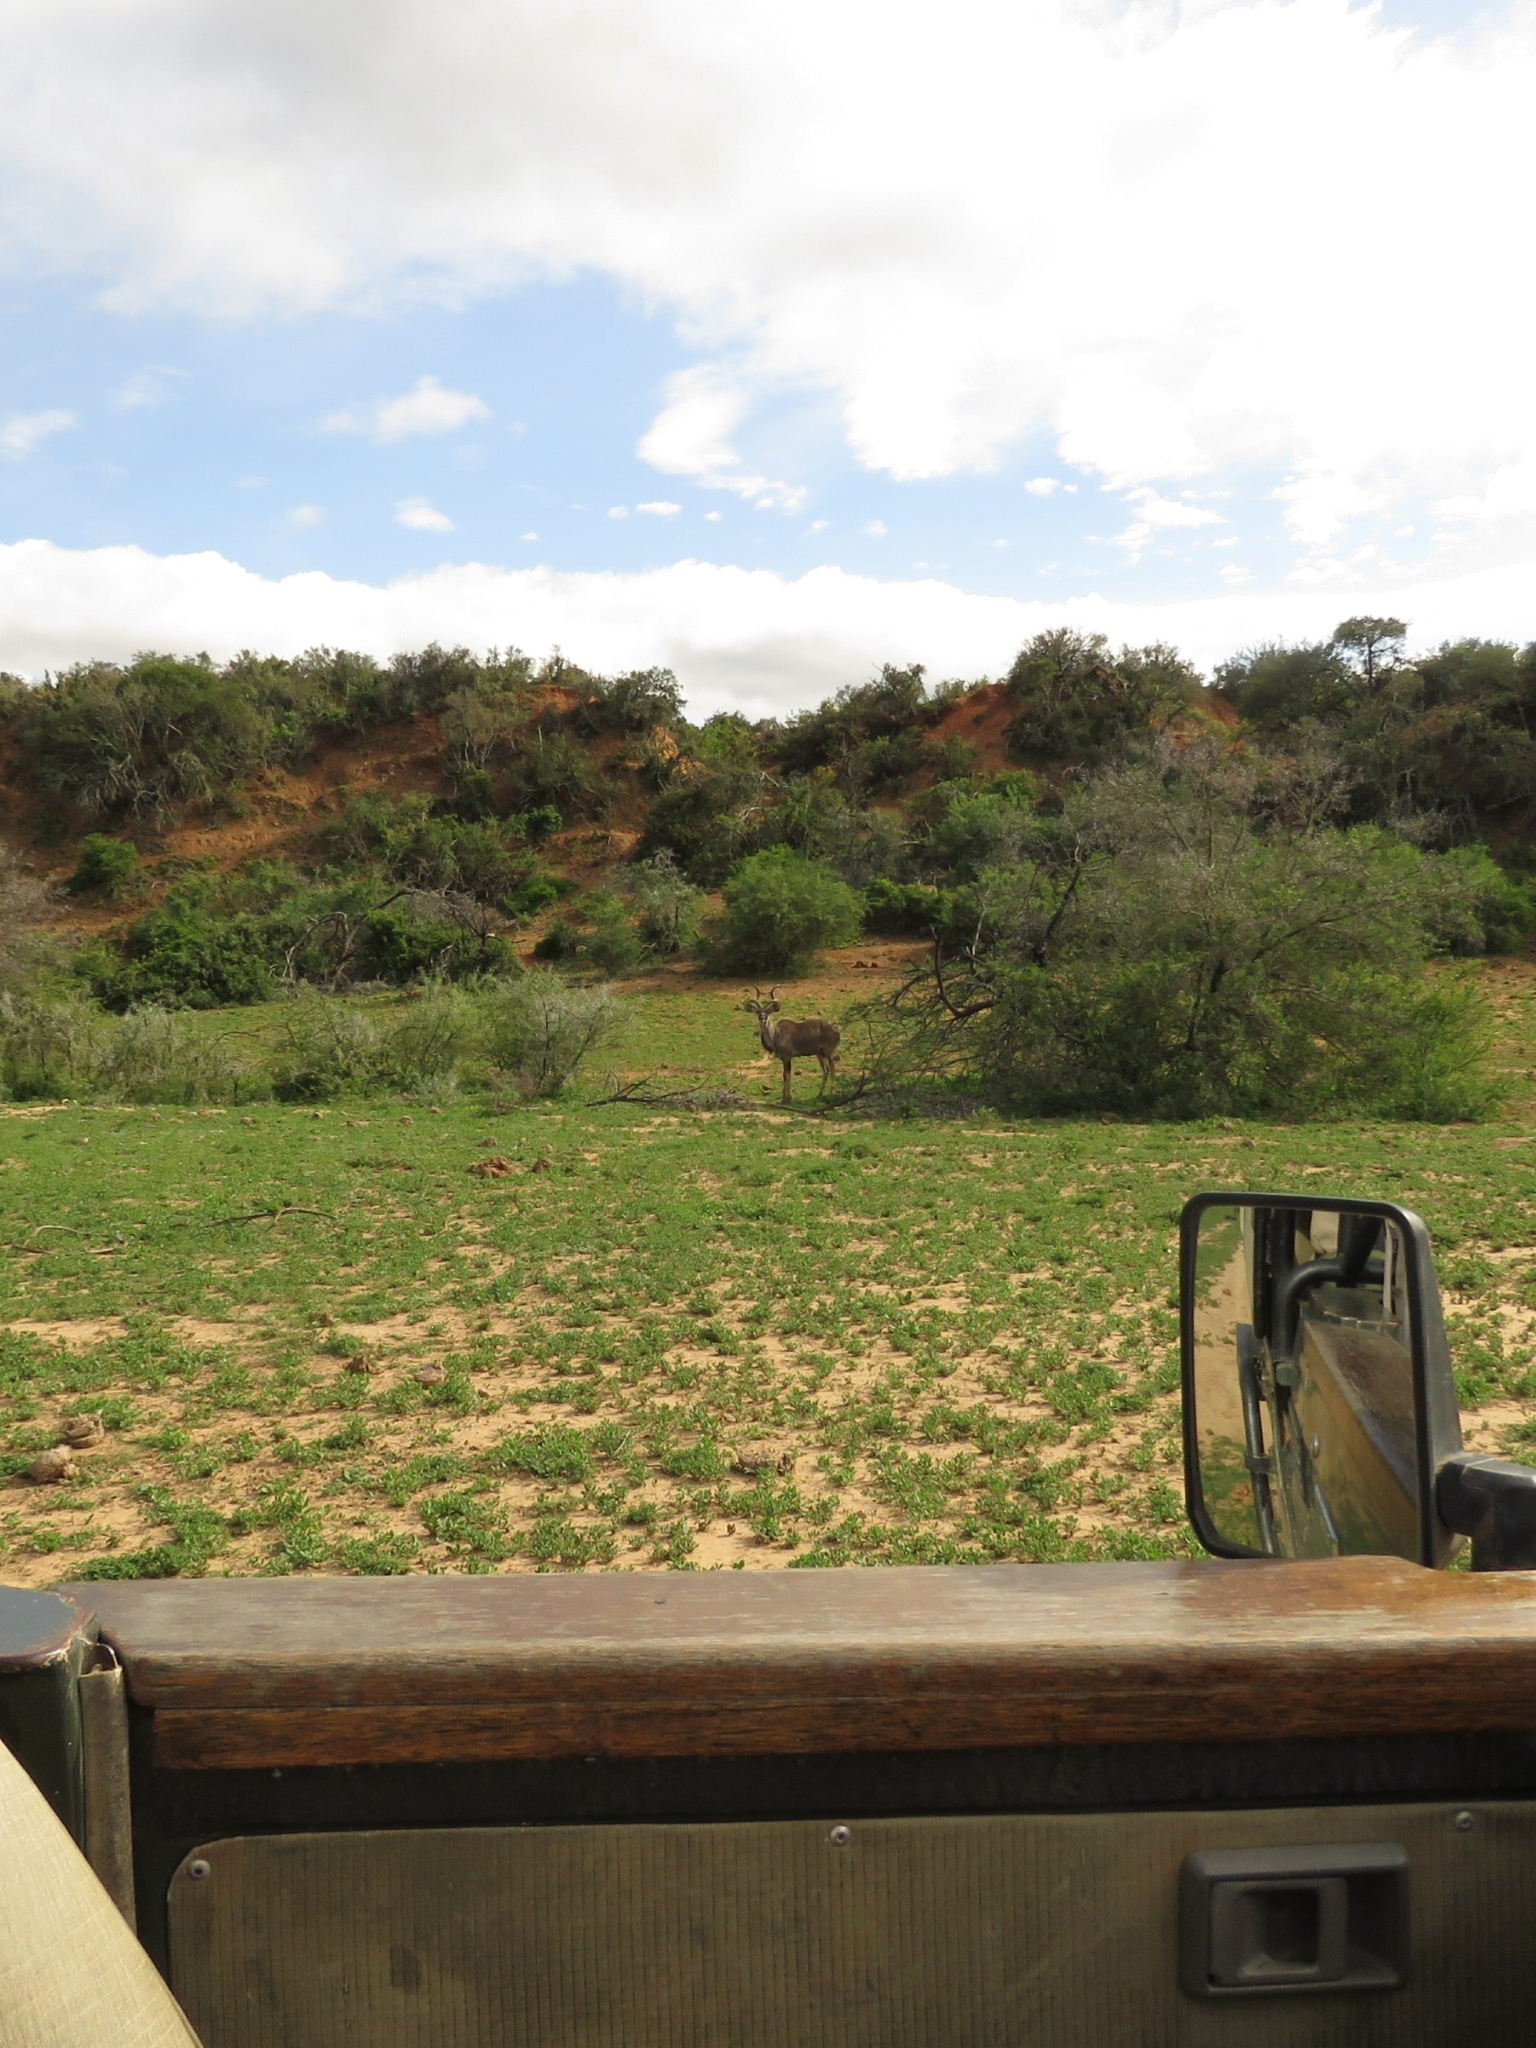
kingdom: Animalia
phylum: Chordata
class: Mammalia
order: Artiodactyla
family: Bovidae
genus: Tragelaphus
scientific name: Tragelaphus strepsiceros
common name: Greater kudu
